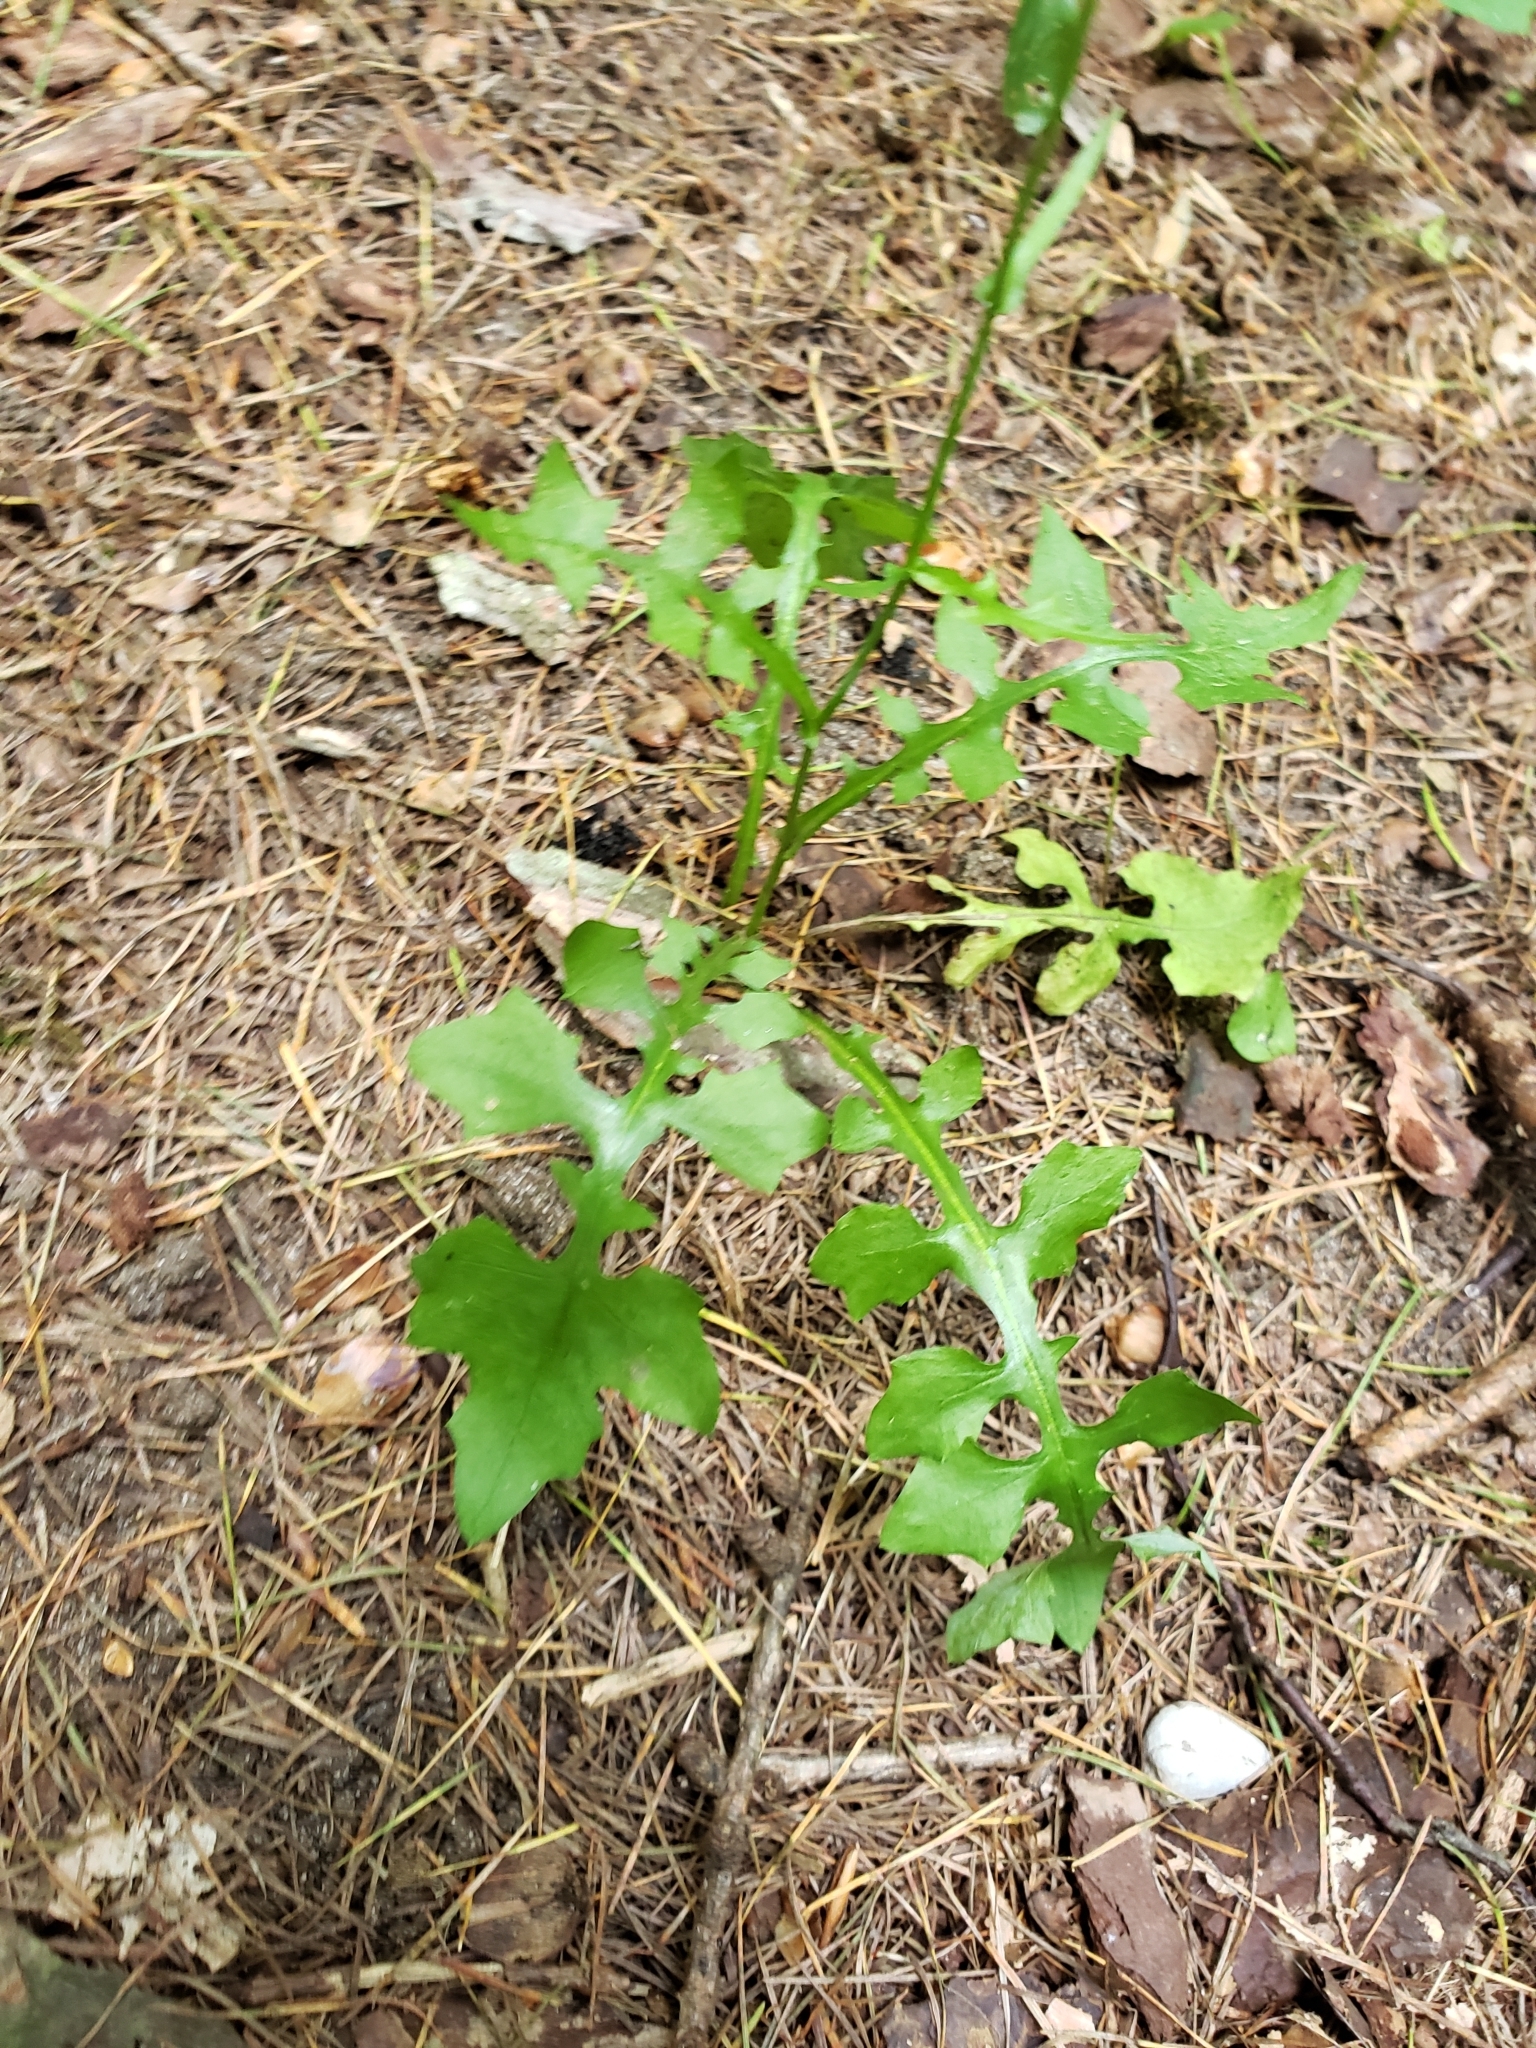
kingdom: Plantae
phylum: Tracheophyta
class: Magnoliopsida
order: Asterales
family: Asteraceae
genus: Mycelis
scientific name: Mycelis muralis
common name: Wall lettuce
